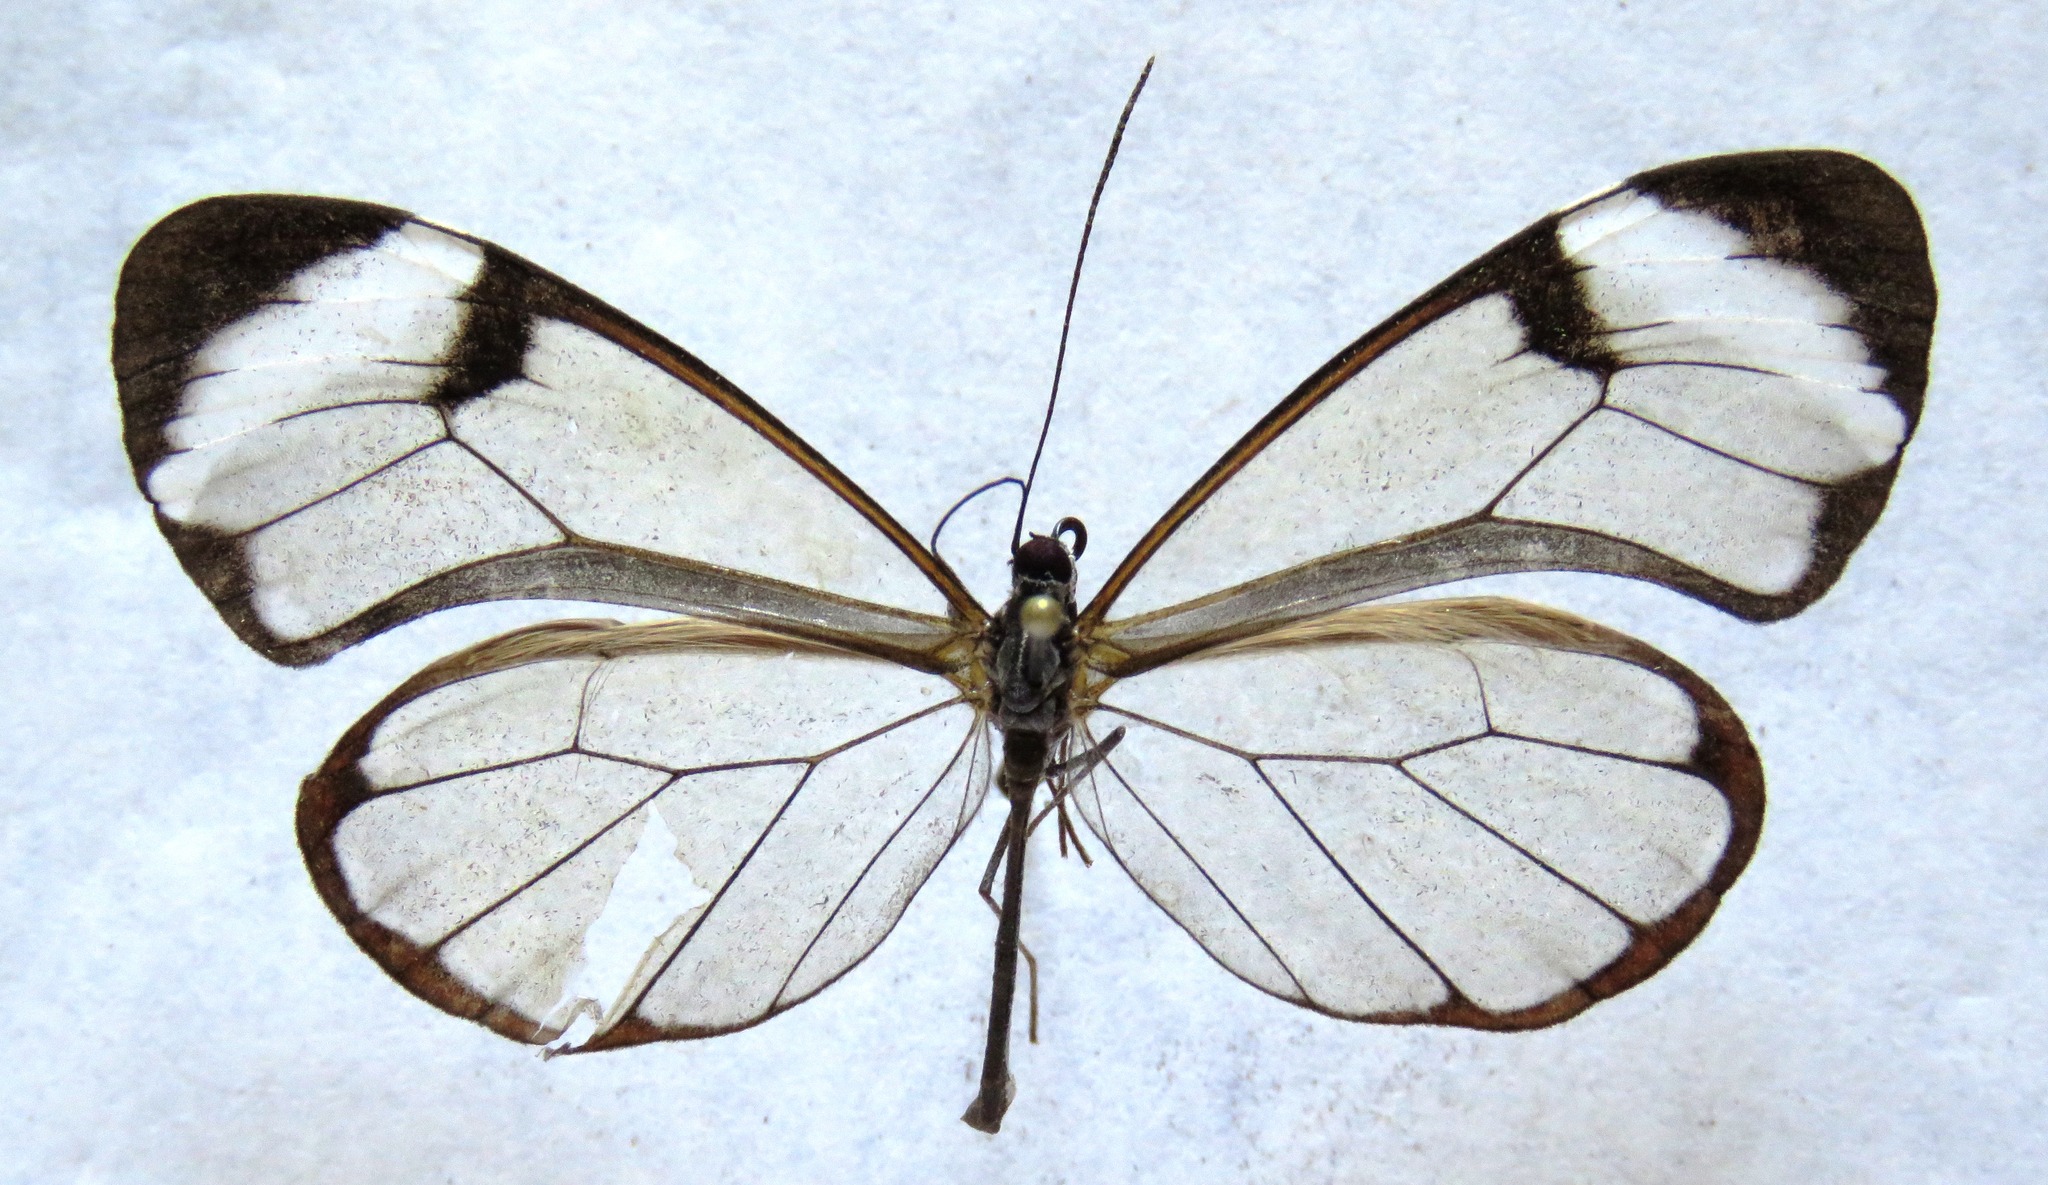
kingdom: Animalia
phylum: Arthropoda
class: Insecta
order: Lepidoptera
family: Nymphalidae
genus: Greta
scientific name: Greta morgane
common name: Thick-tipped greta
